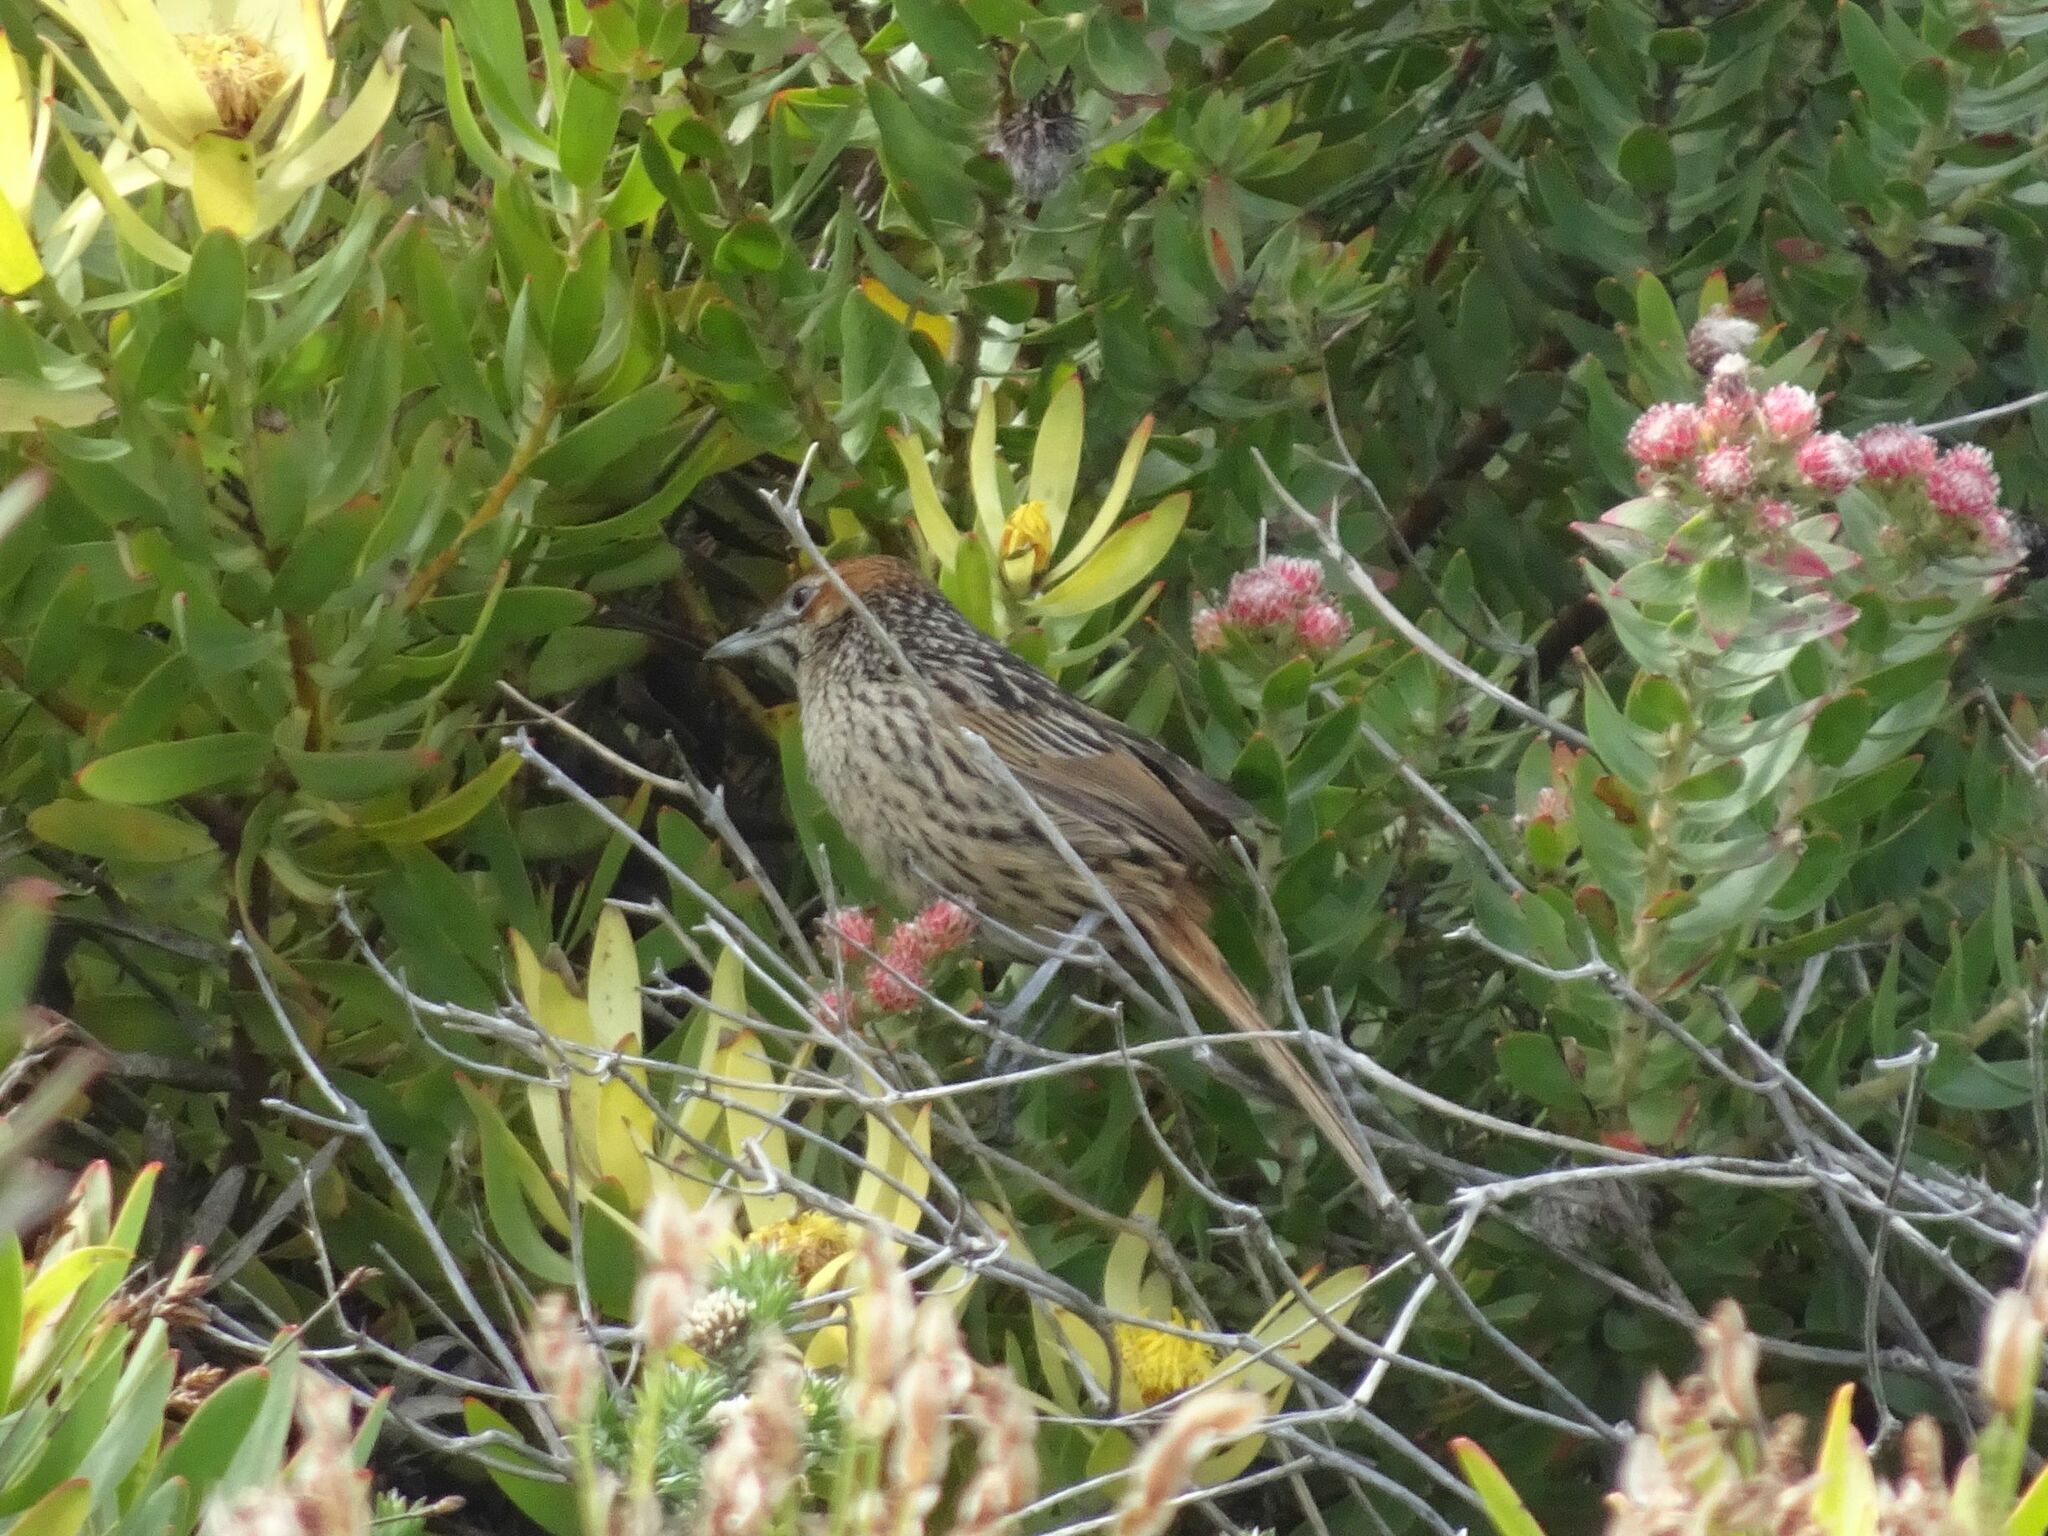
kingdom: Animalia
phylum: Chordata
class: Aves
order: Passeriformes
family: Macrosphenidae
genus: Sphenoeacus
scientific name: Sphenoeacus afer
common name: Cape grassbird
